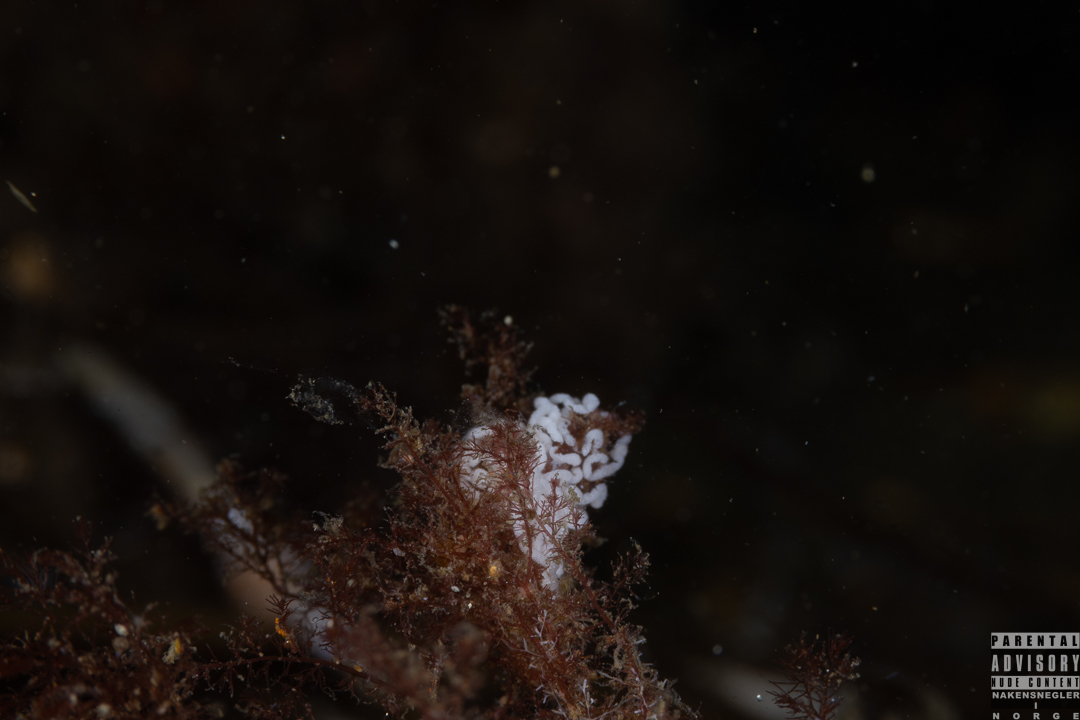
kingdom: Animalia
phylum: Mollusca
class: Gastropoda
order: Nudibranchia
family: Facelinidae
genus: Facelina
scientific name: Facelina bostoniensis
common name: Boston facelina
